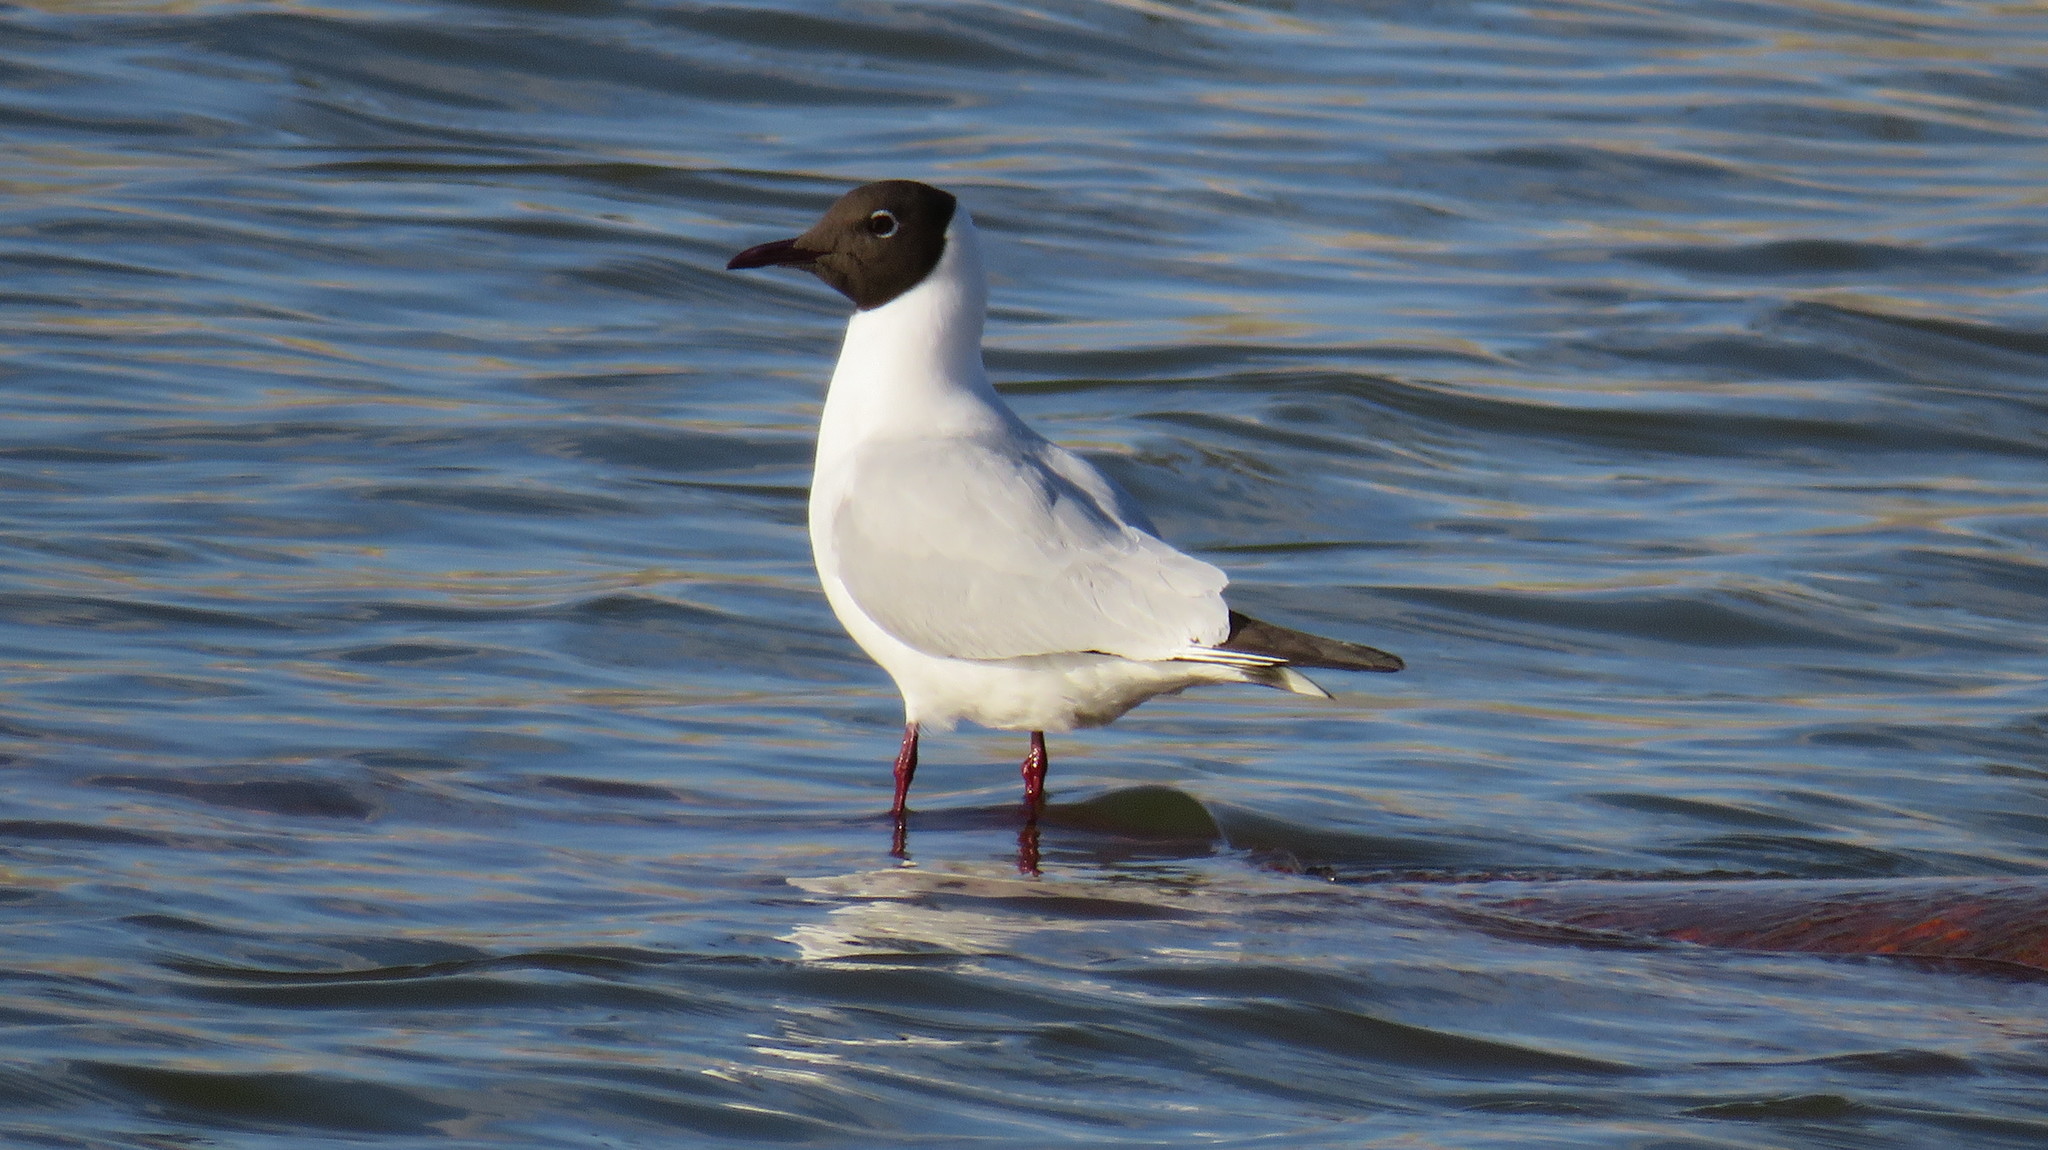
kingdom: Animalia
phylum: Chordata
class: Aves
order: Charadriiformes
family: Laridae
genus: Chroicocephalus
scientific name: Chroicocephalus ridibundus
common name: Black-headed gull
